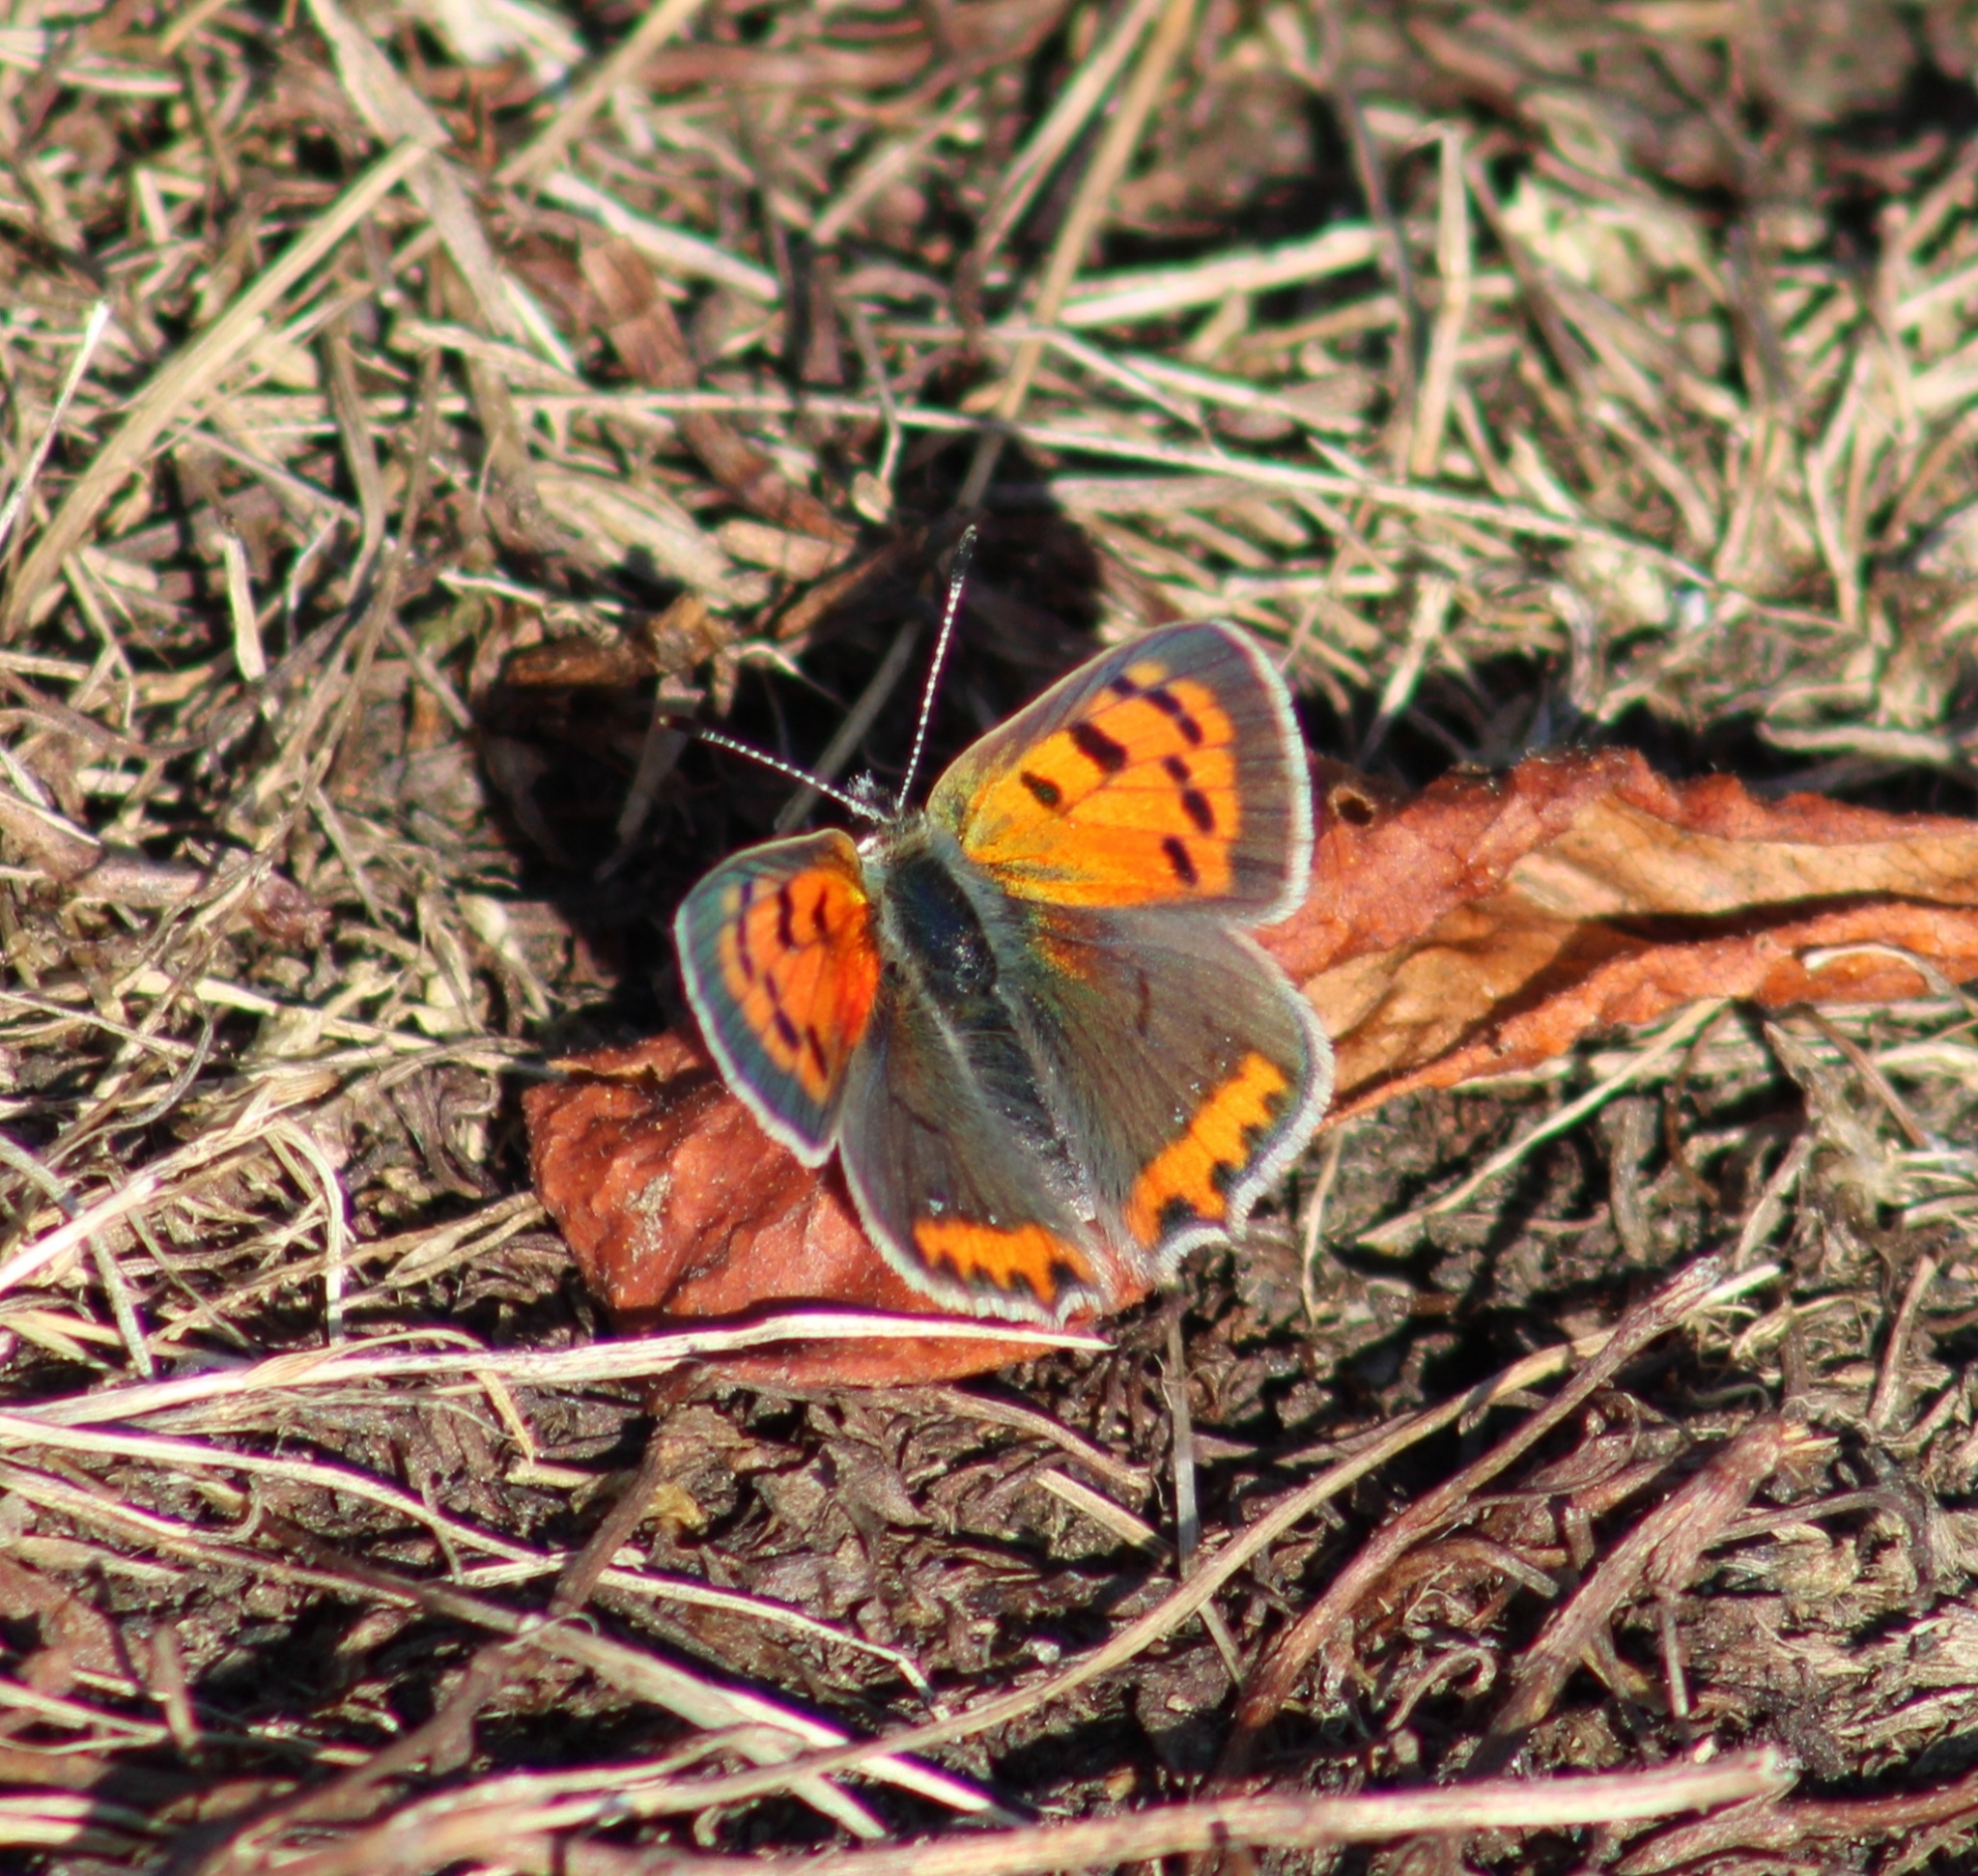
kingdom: Animalia
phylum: Arthropoda
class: Insecta
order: Lepidoptera
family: Lycaenidae
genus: Lycaena
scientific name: Lycaena hypophlaeas
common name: American copper
